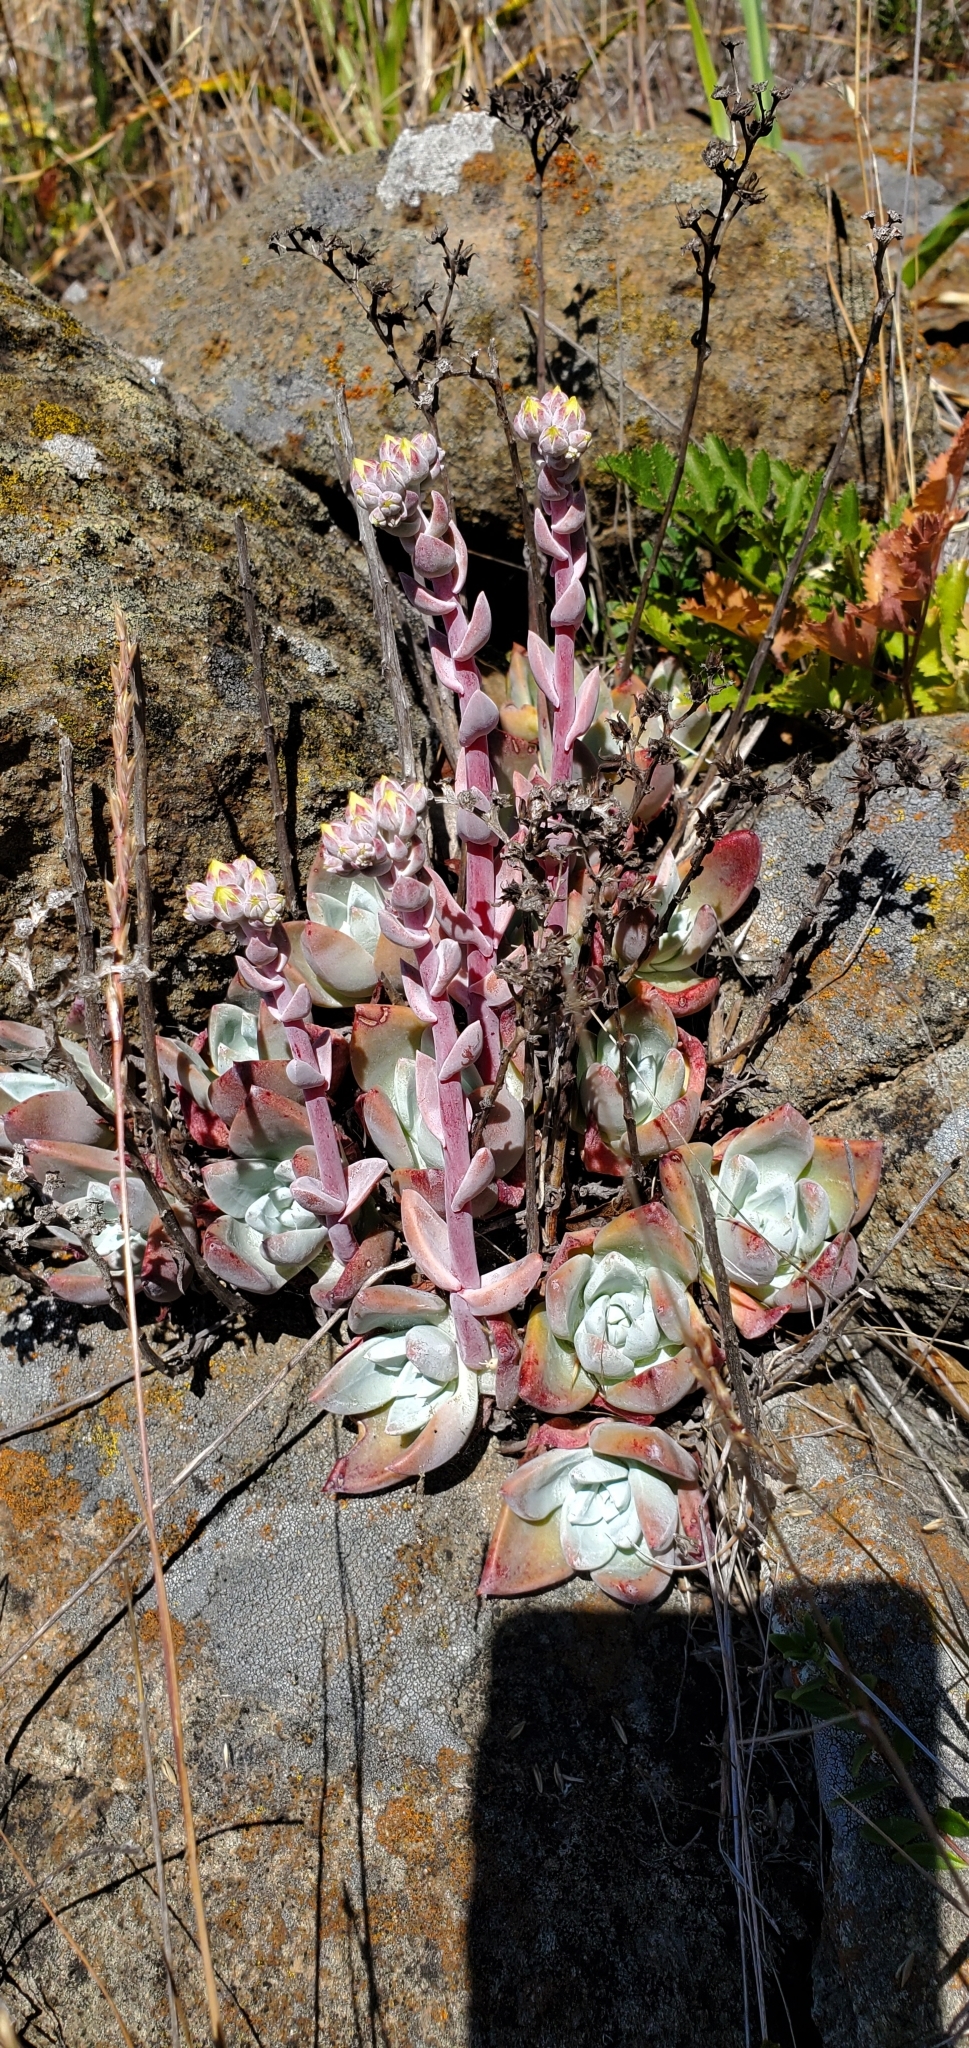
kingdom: Plantae
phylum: Tracheophyta
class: Magnoliopsida
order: Saxifragales
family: Crassulaceae
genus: Dudleya
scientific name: Dudleya farinosa
